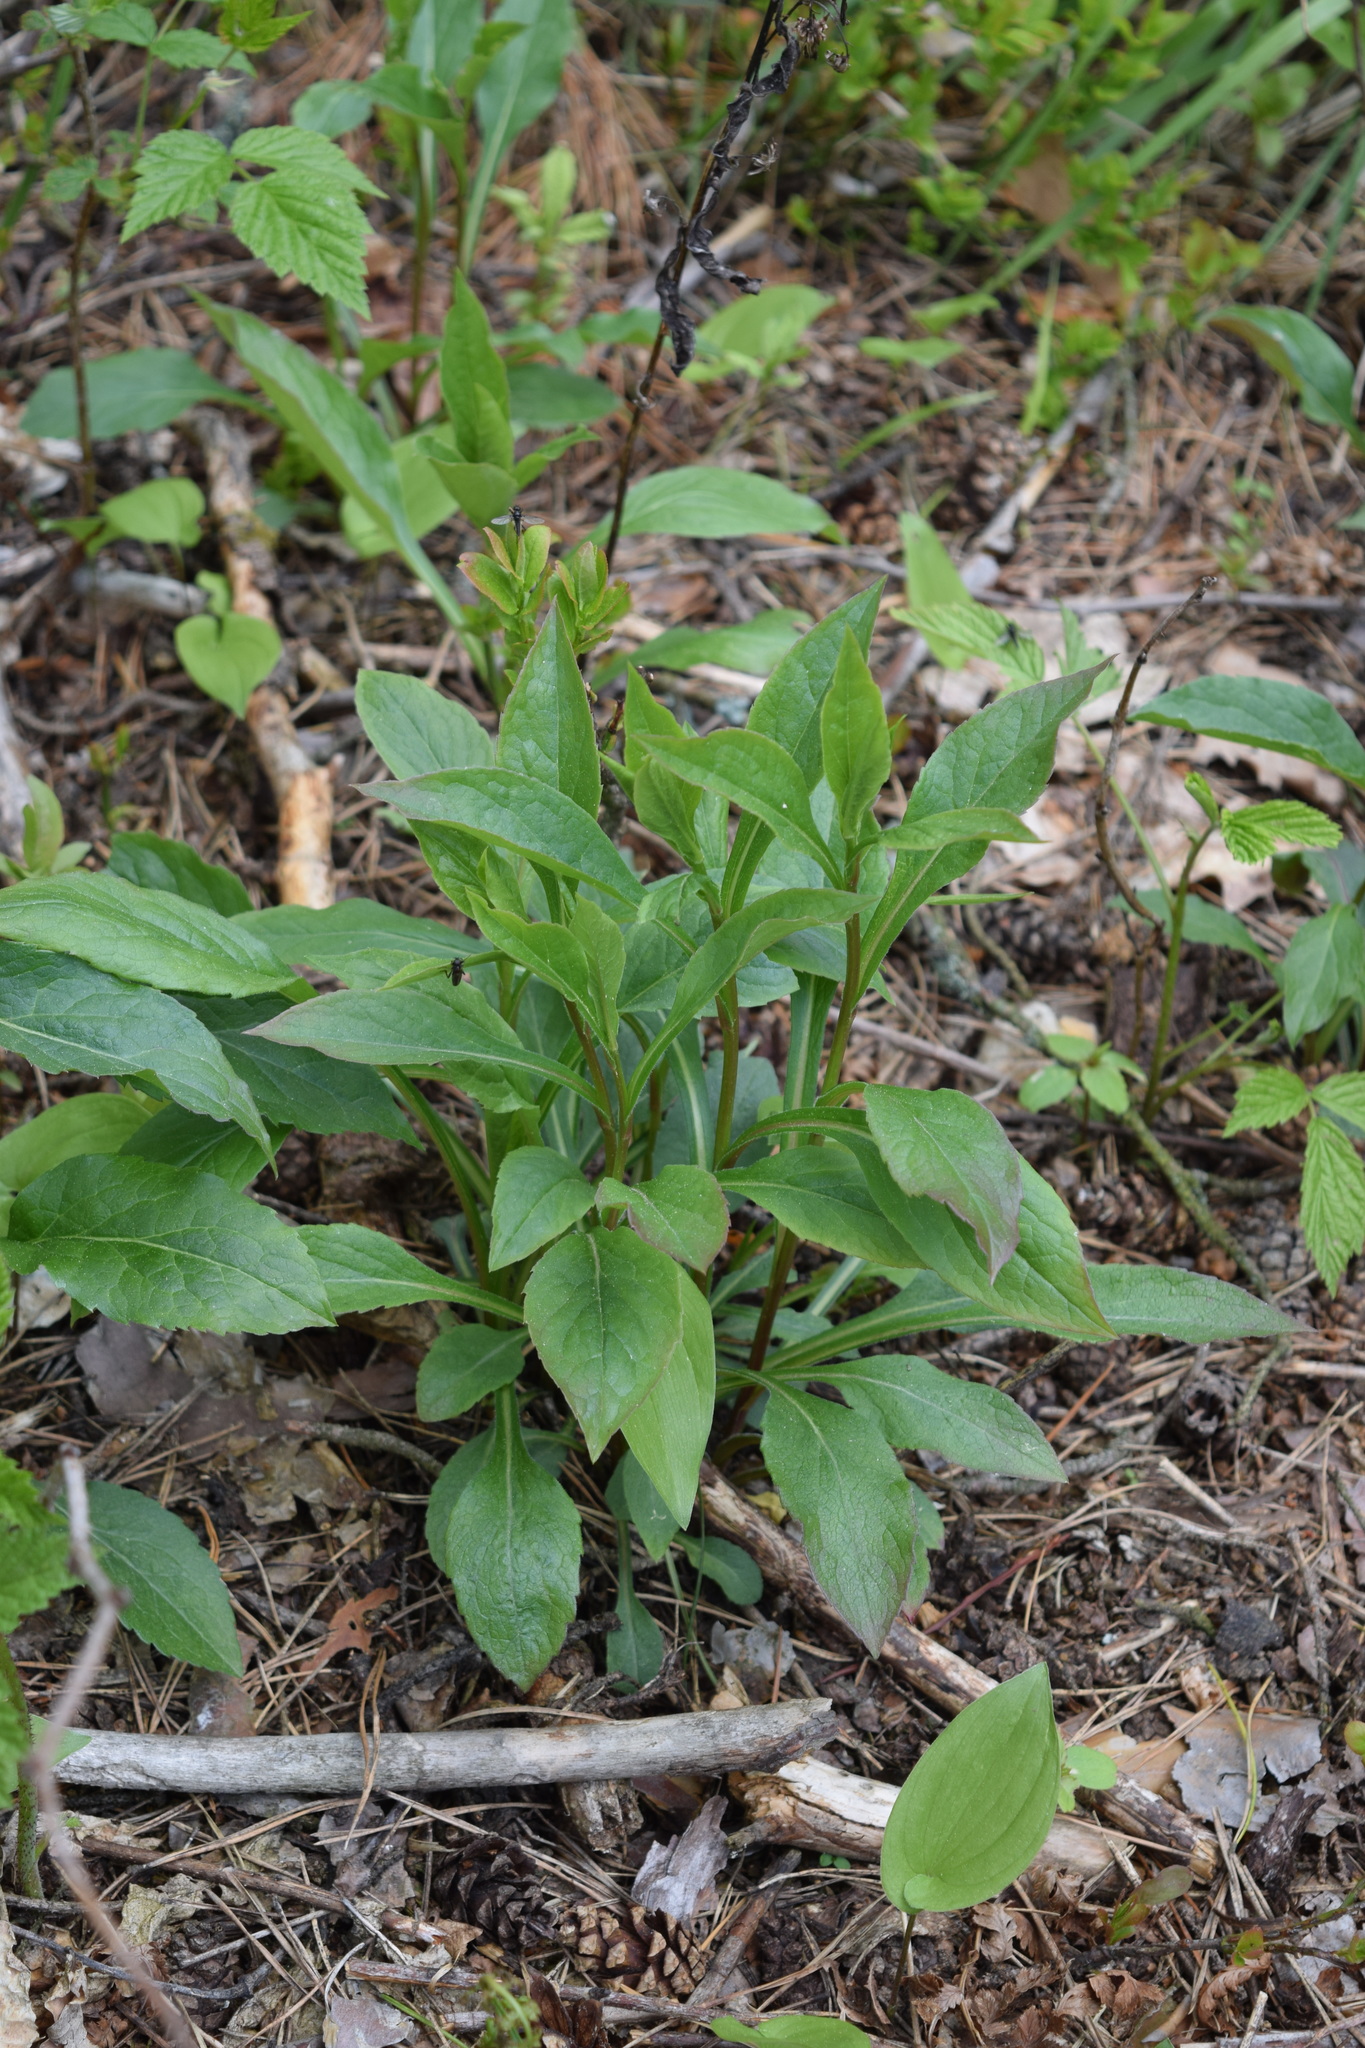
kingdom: Plantae
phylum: Tracheophyta
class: Magnoliopsida
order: Asterales
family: Asteraceae
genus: Solidago
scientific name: Solidago virgaurea
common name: Goldenrod
